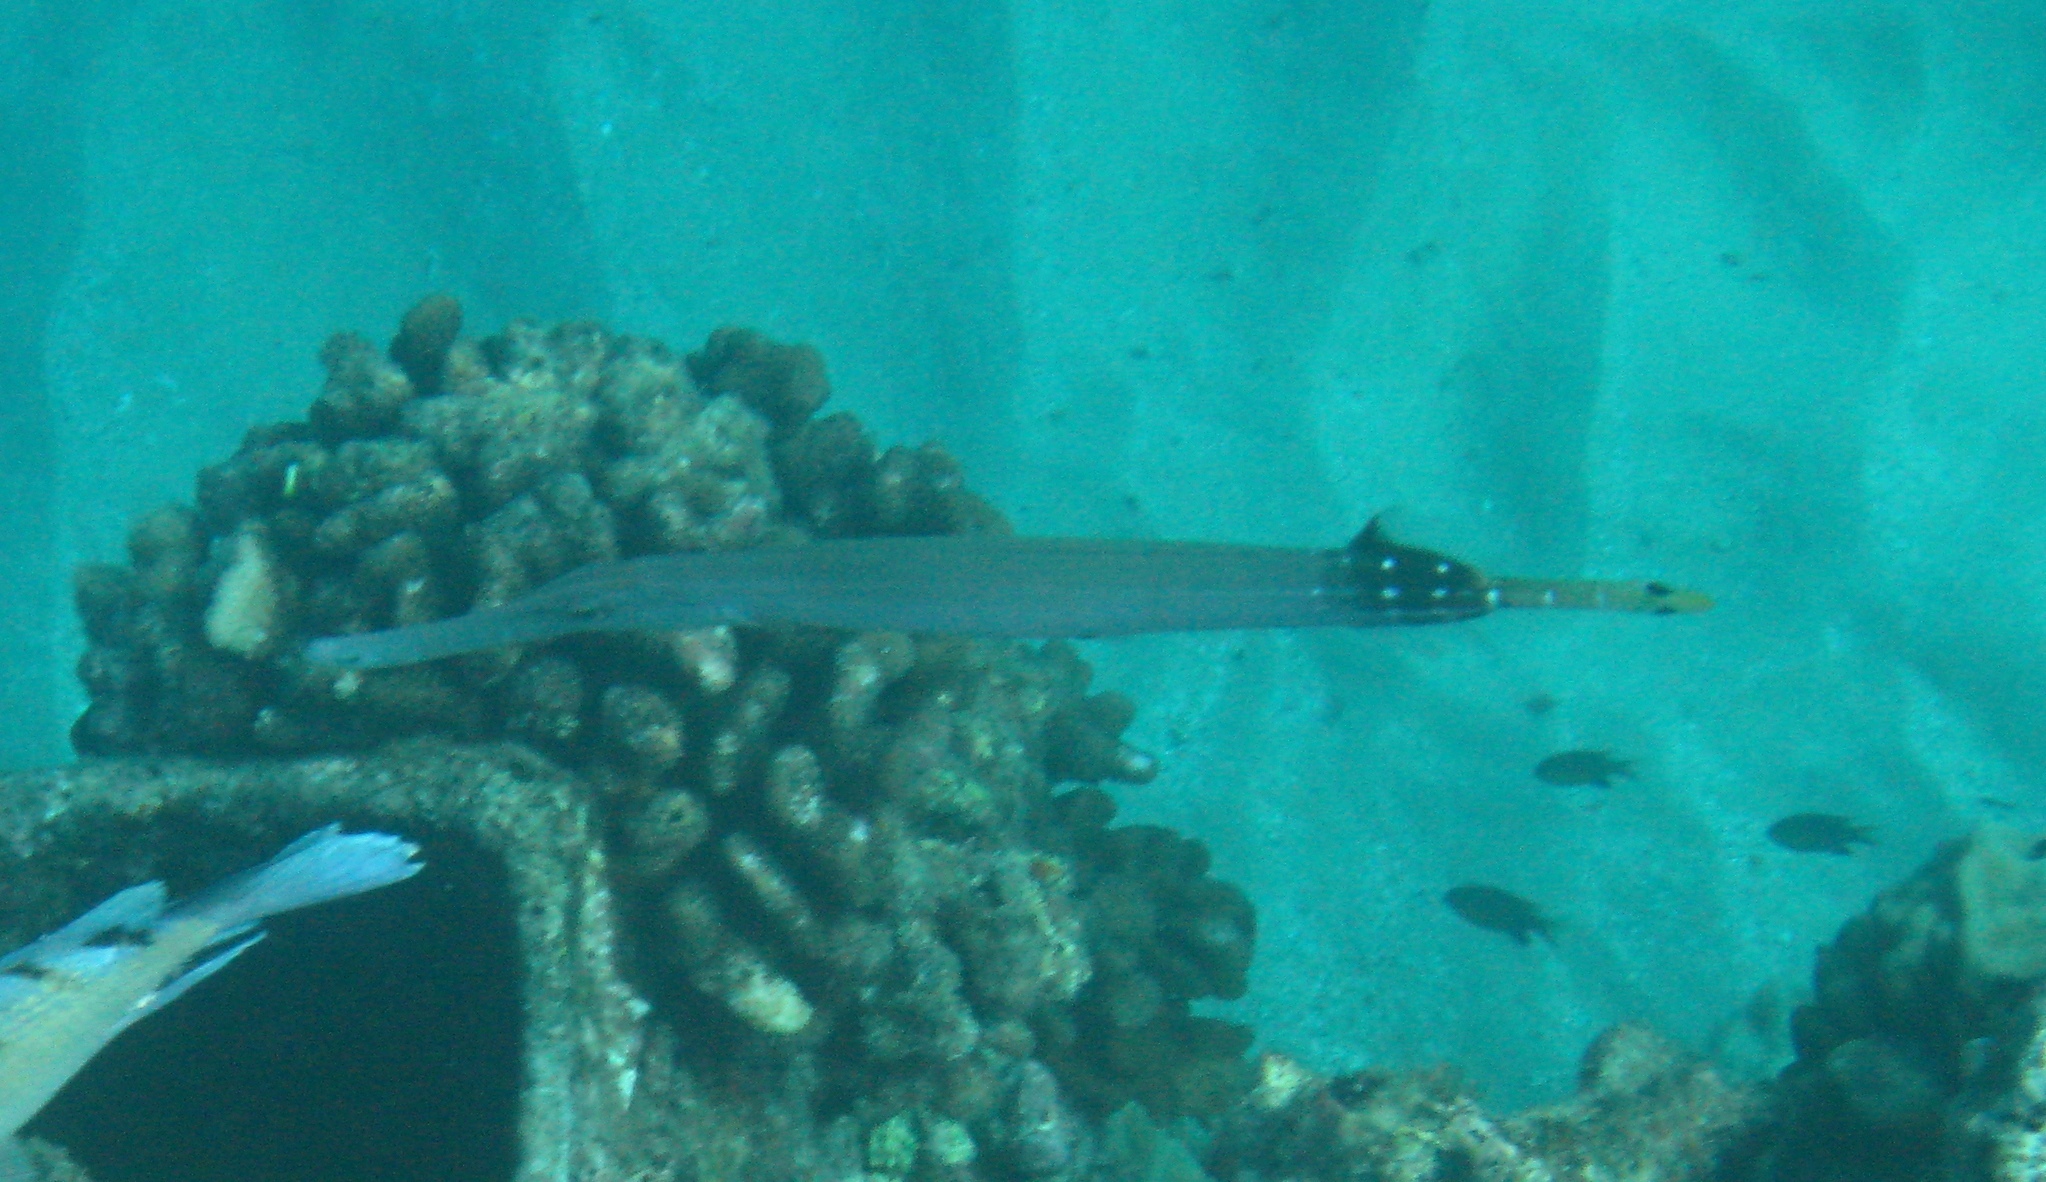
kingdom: Animalia
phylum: Chordata
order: Syngnathiformes
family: Aulostomidae
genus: Aulostomus
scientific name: Aulostomus chinensis
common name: Chinese trumpetfish
